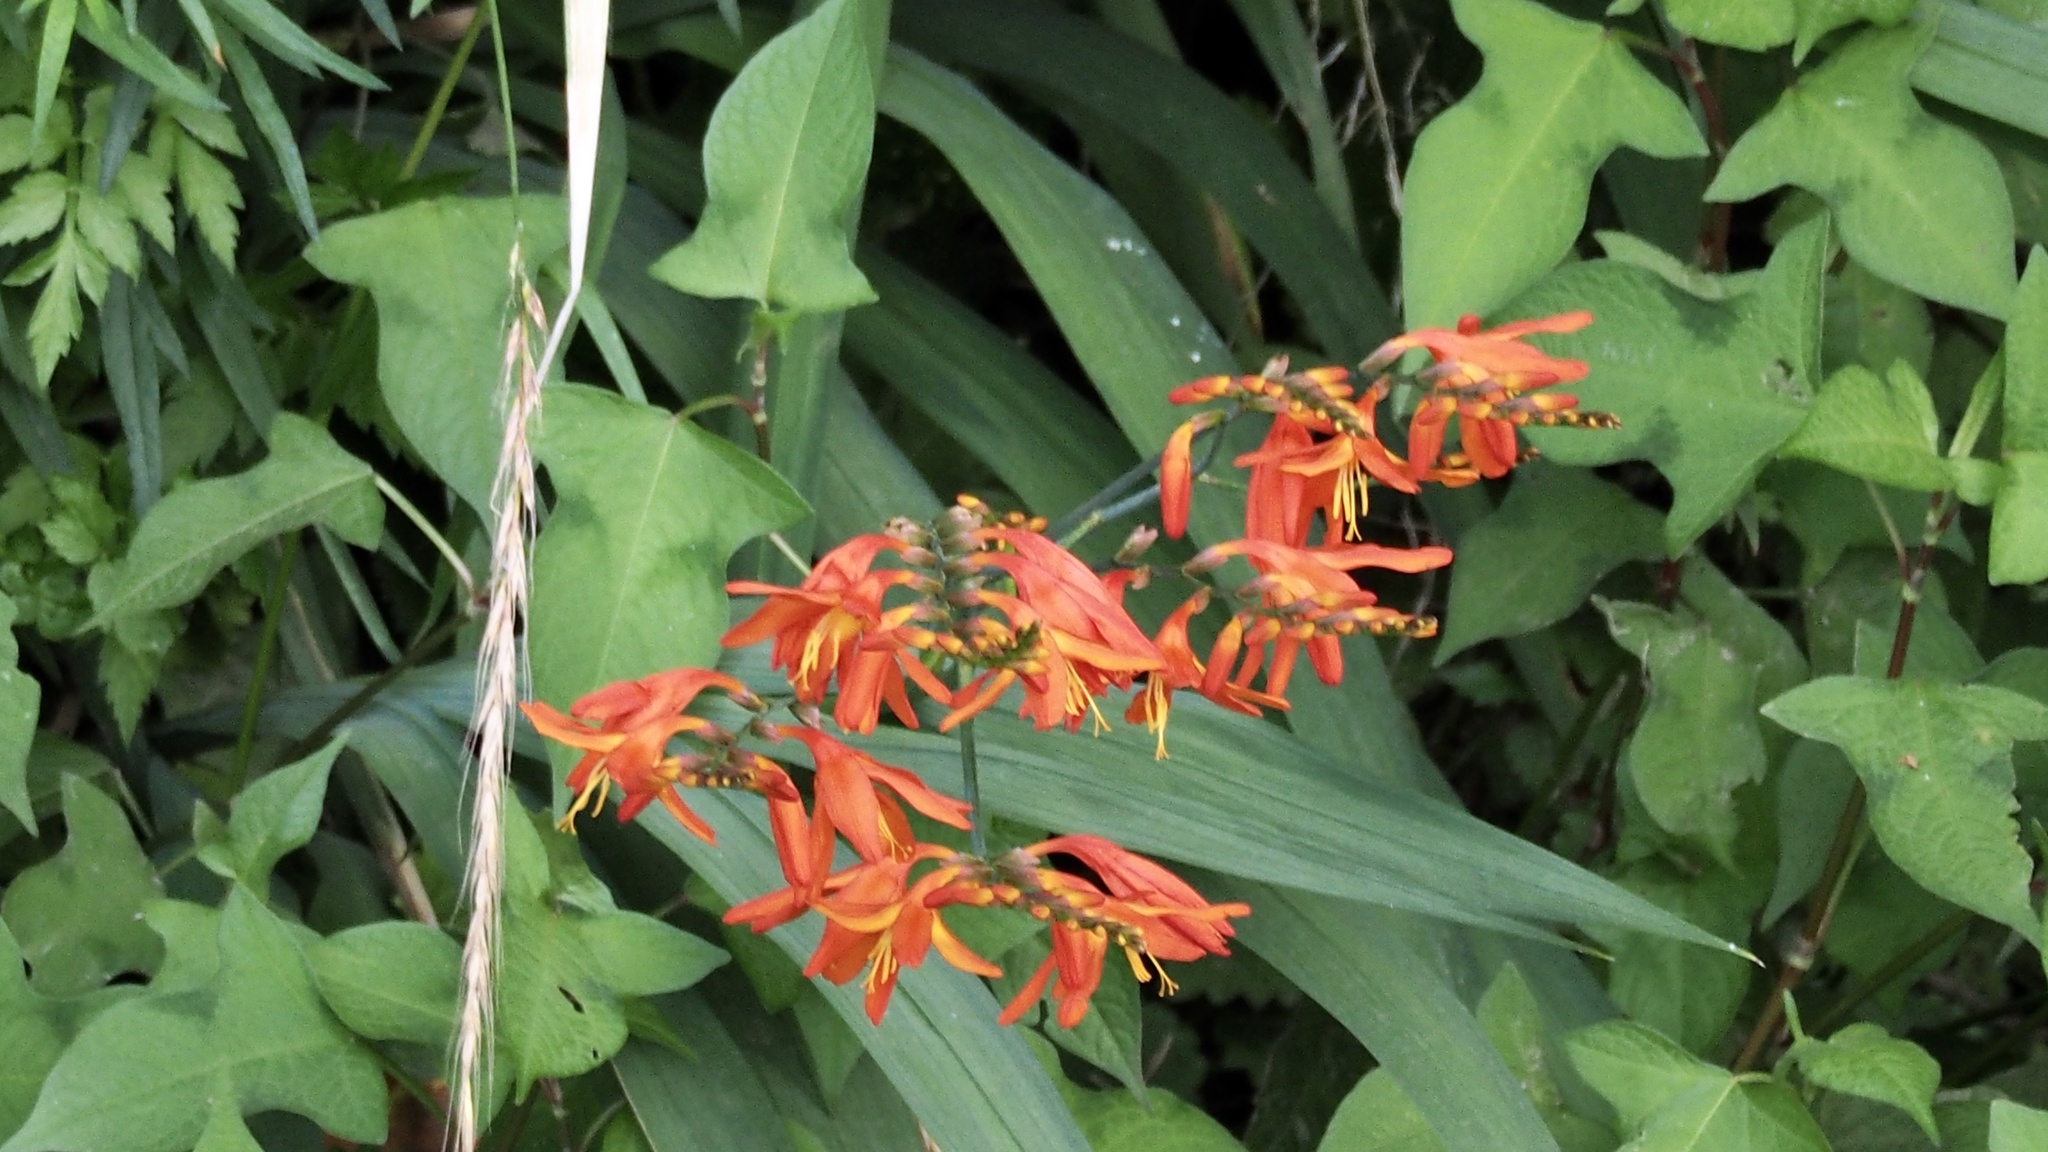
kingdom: Plantae
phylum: Tracheophyta
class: Liliopsida
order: Asparagales
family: Iridaceae
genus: Crocosmia
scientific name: Crocosmia crocosmiiflora
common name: Montbretia
